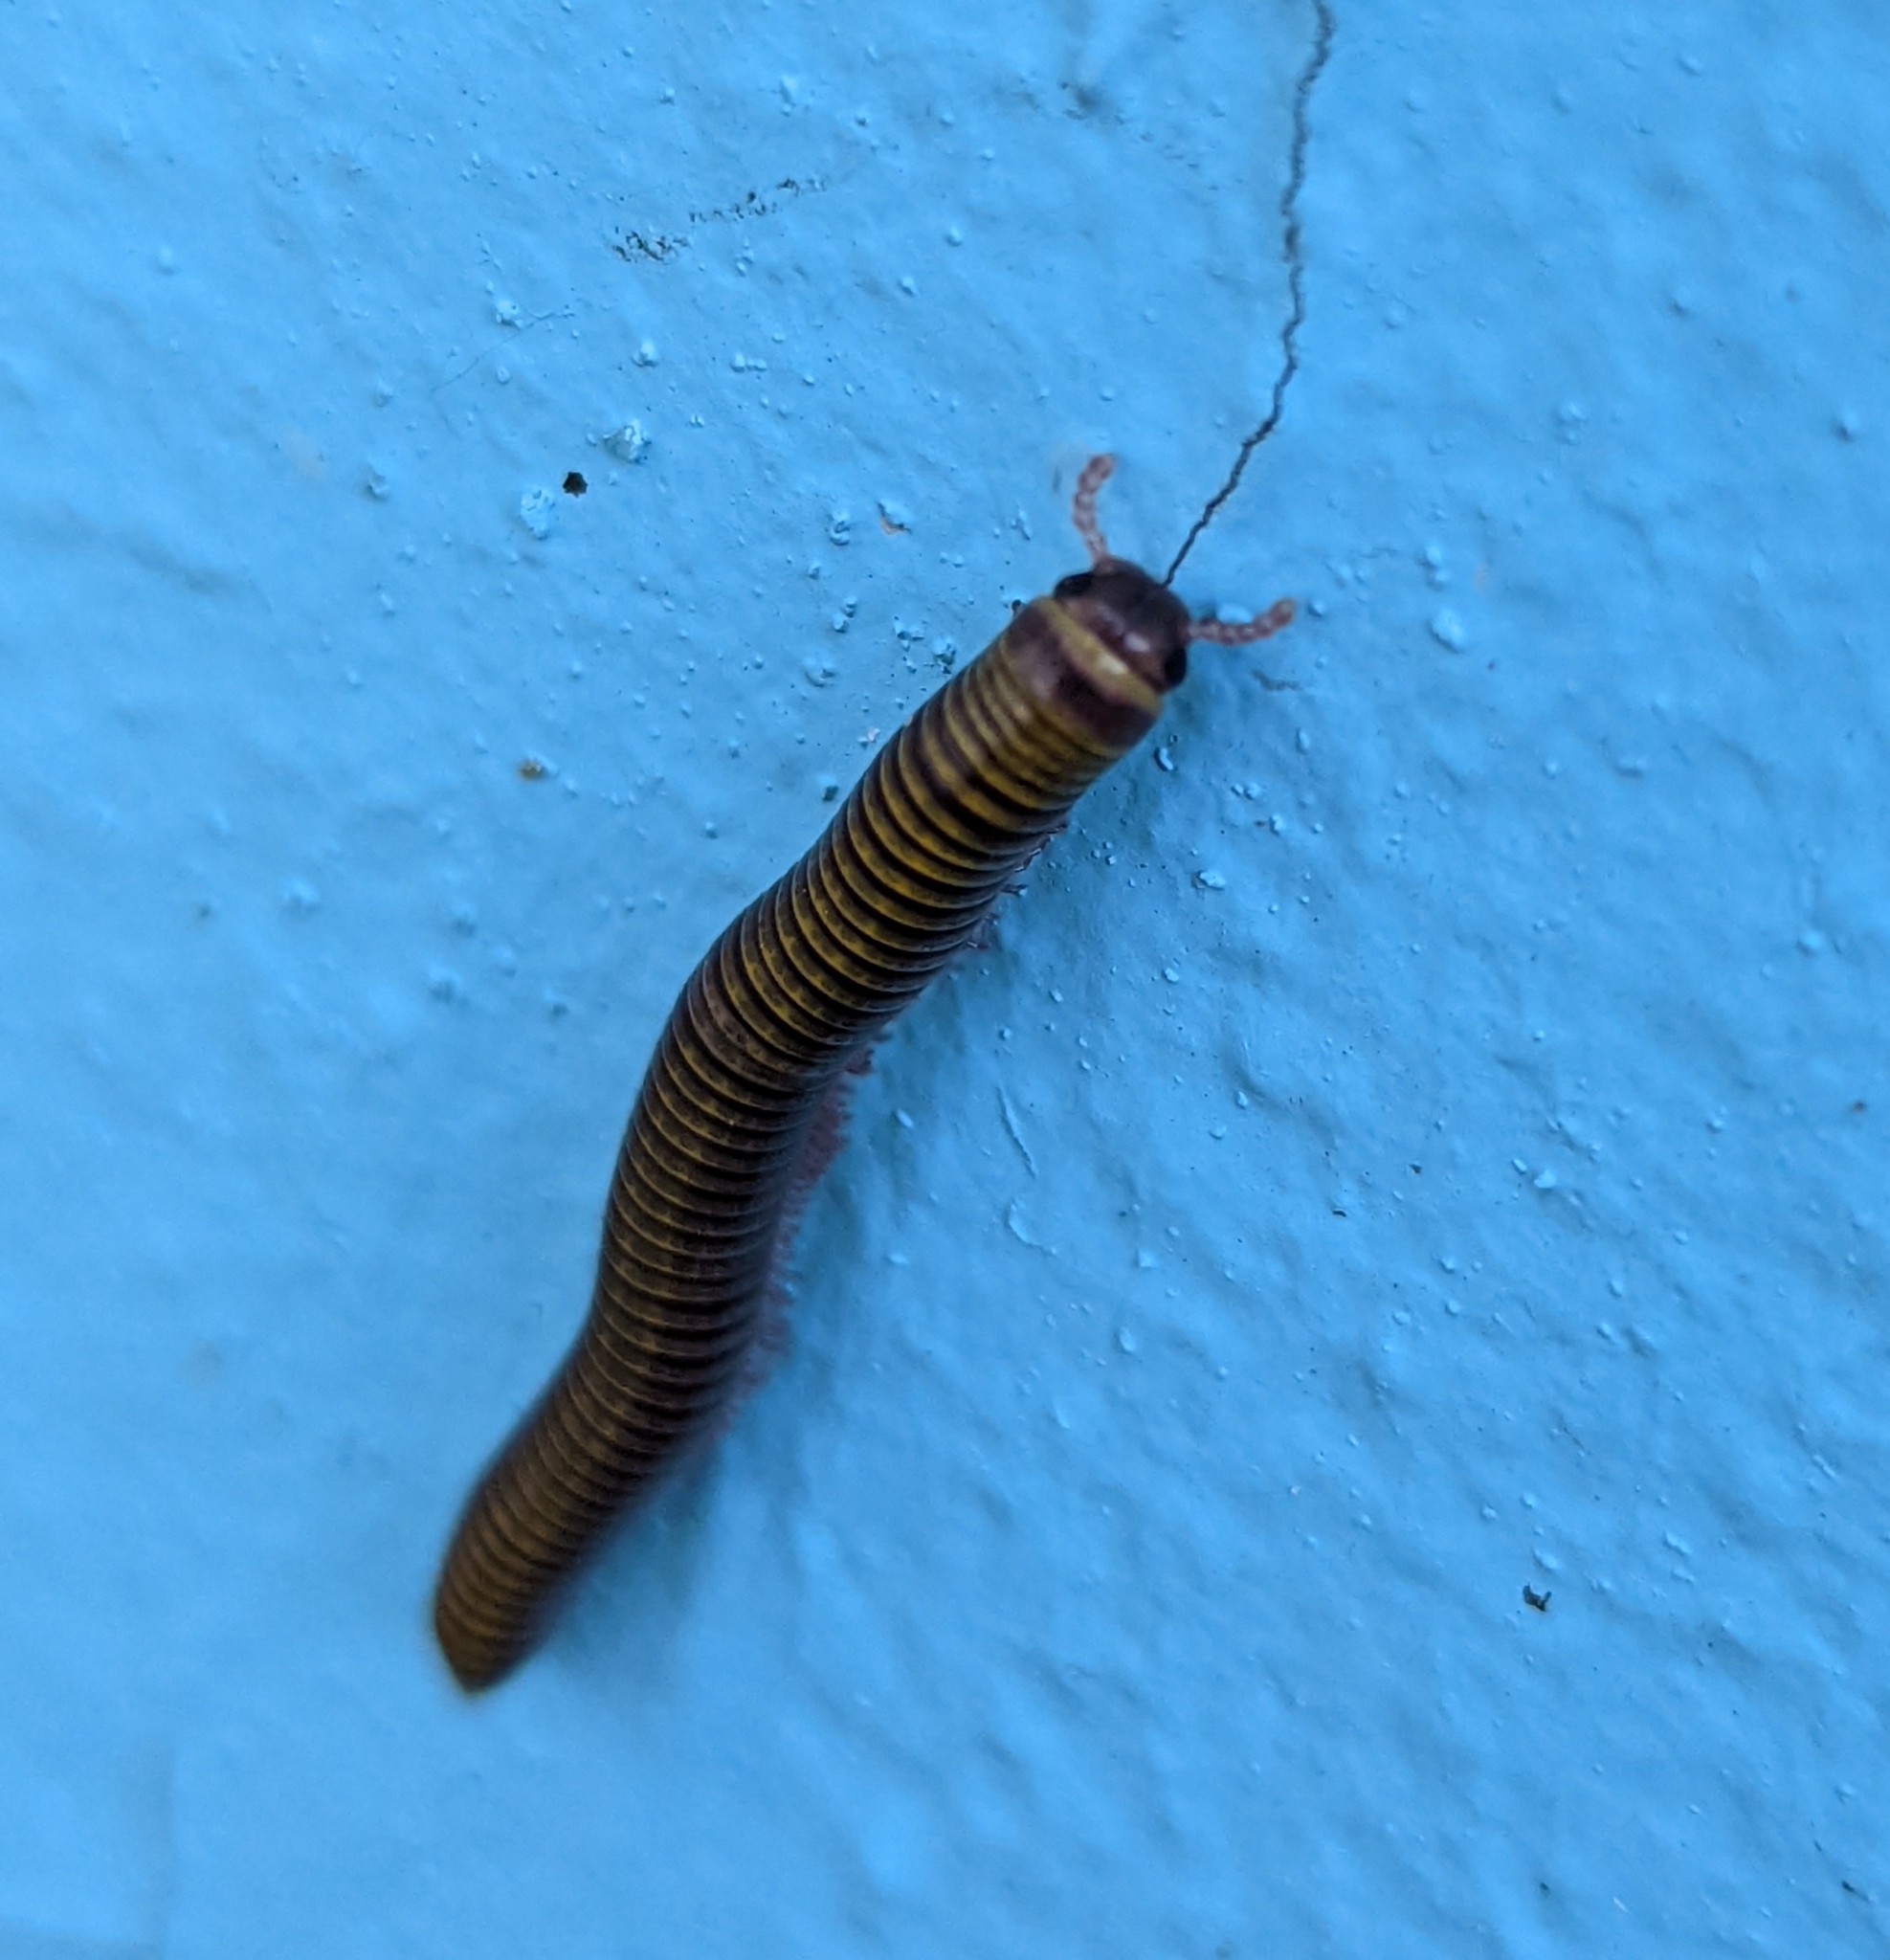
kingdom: Animalia
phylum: Arthropoda
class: Diplopoda
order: Spirobolida
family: Rhinocricidae
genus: Anadenobolus
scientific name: Anadenobolus monilicornis
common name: Caribbean millipede
